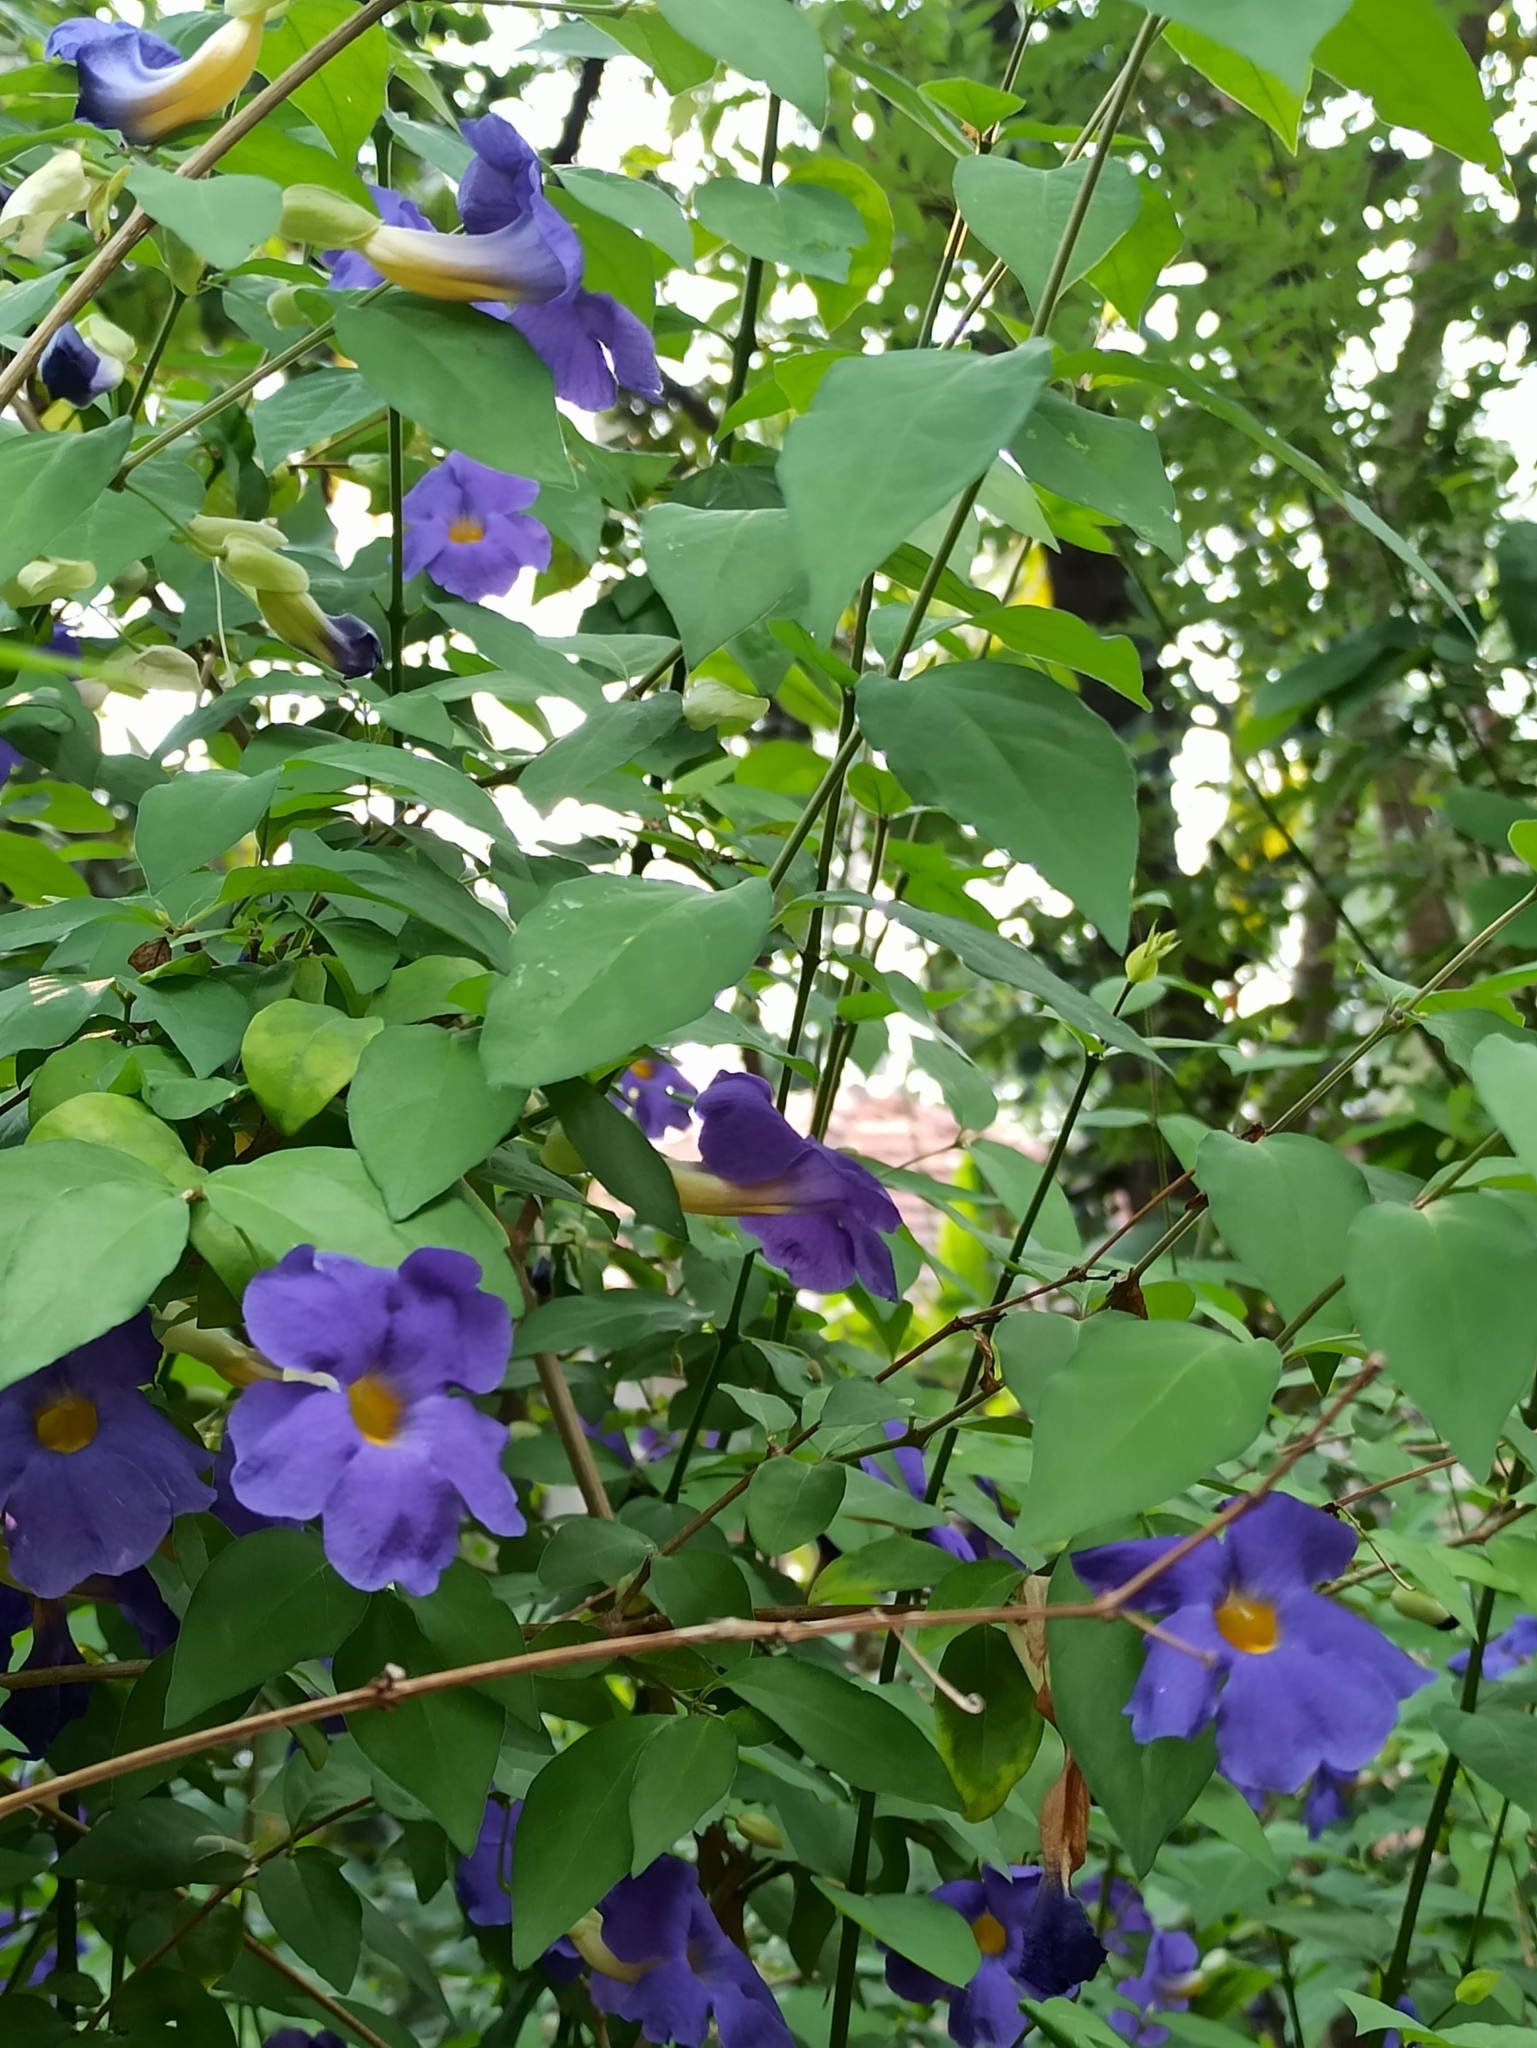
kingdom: Plantae
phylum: Tracheophyta
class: Magnoliopsida
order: Lamiales
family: Acanthaceae
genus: Thunbergia
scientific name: Thunbergia grandiflora
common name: Bengal trumpet
